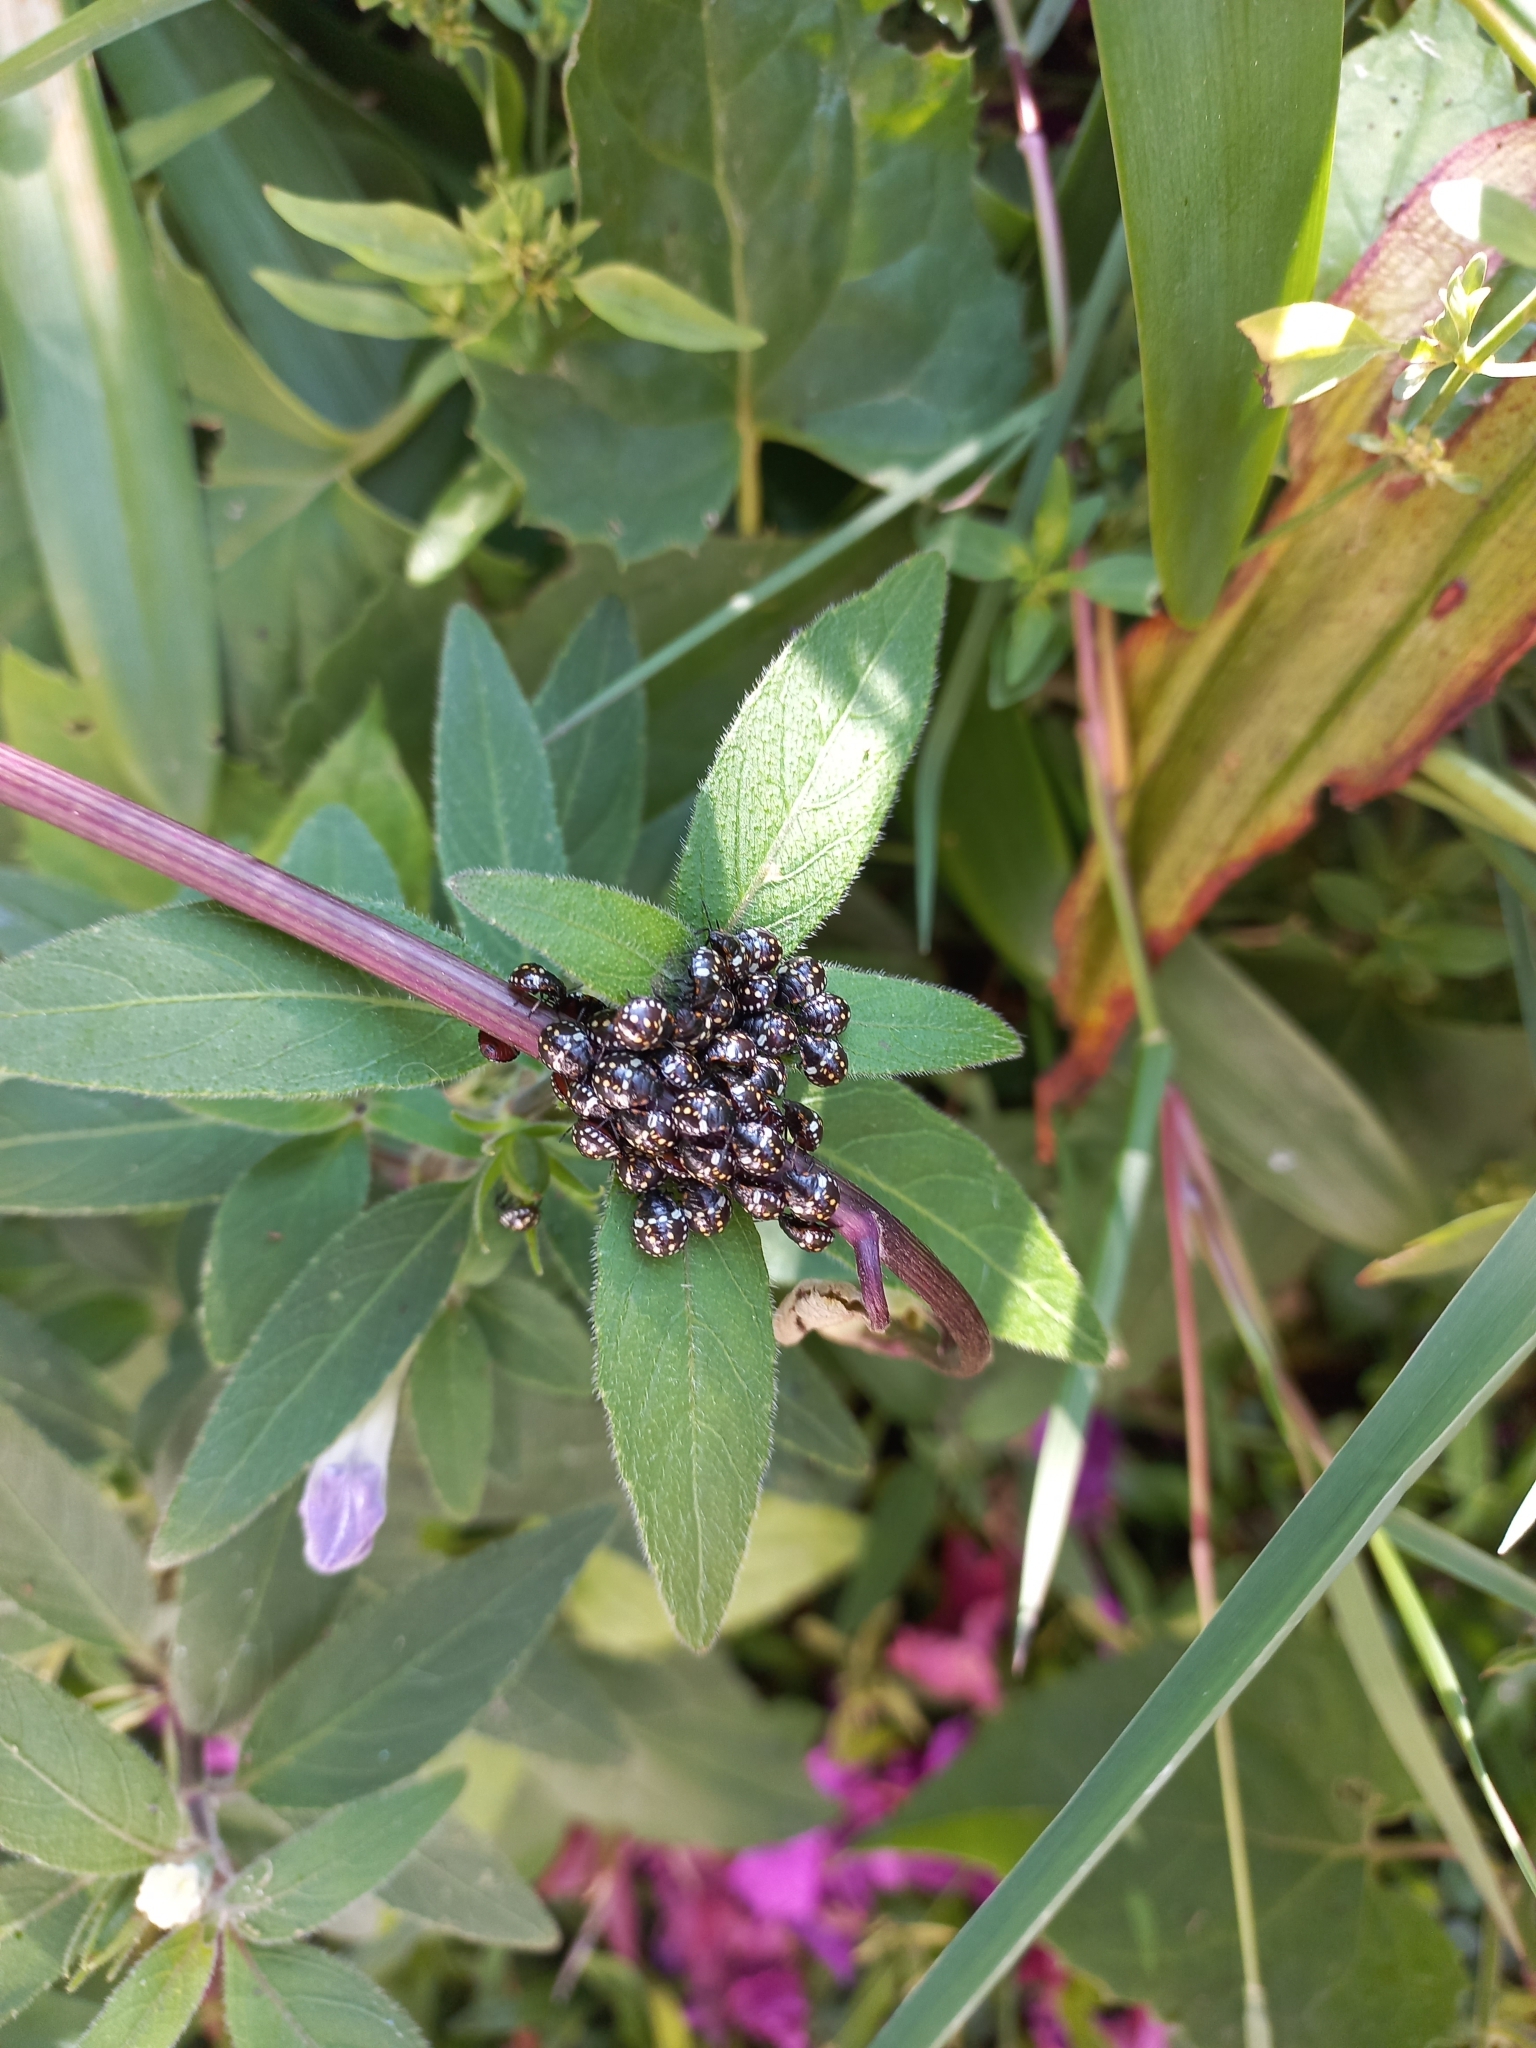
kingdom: Animalia
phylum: Arthropoda
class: Insecta
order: Hemiptera
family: Pentatomidae
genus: Nezara
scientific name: Nezara viridula
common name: Southern green stink bug
